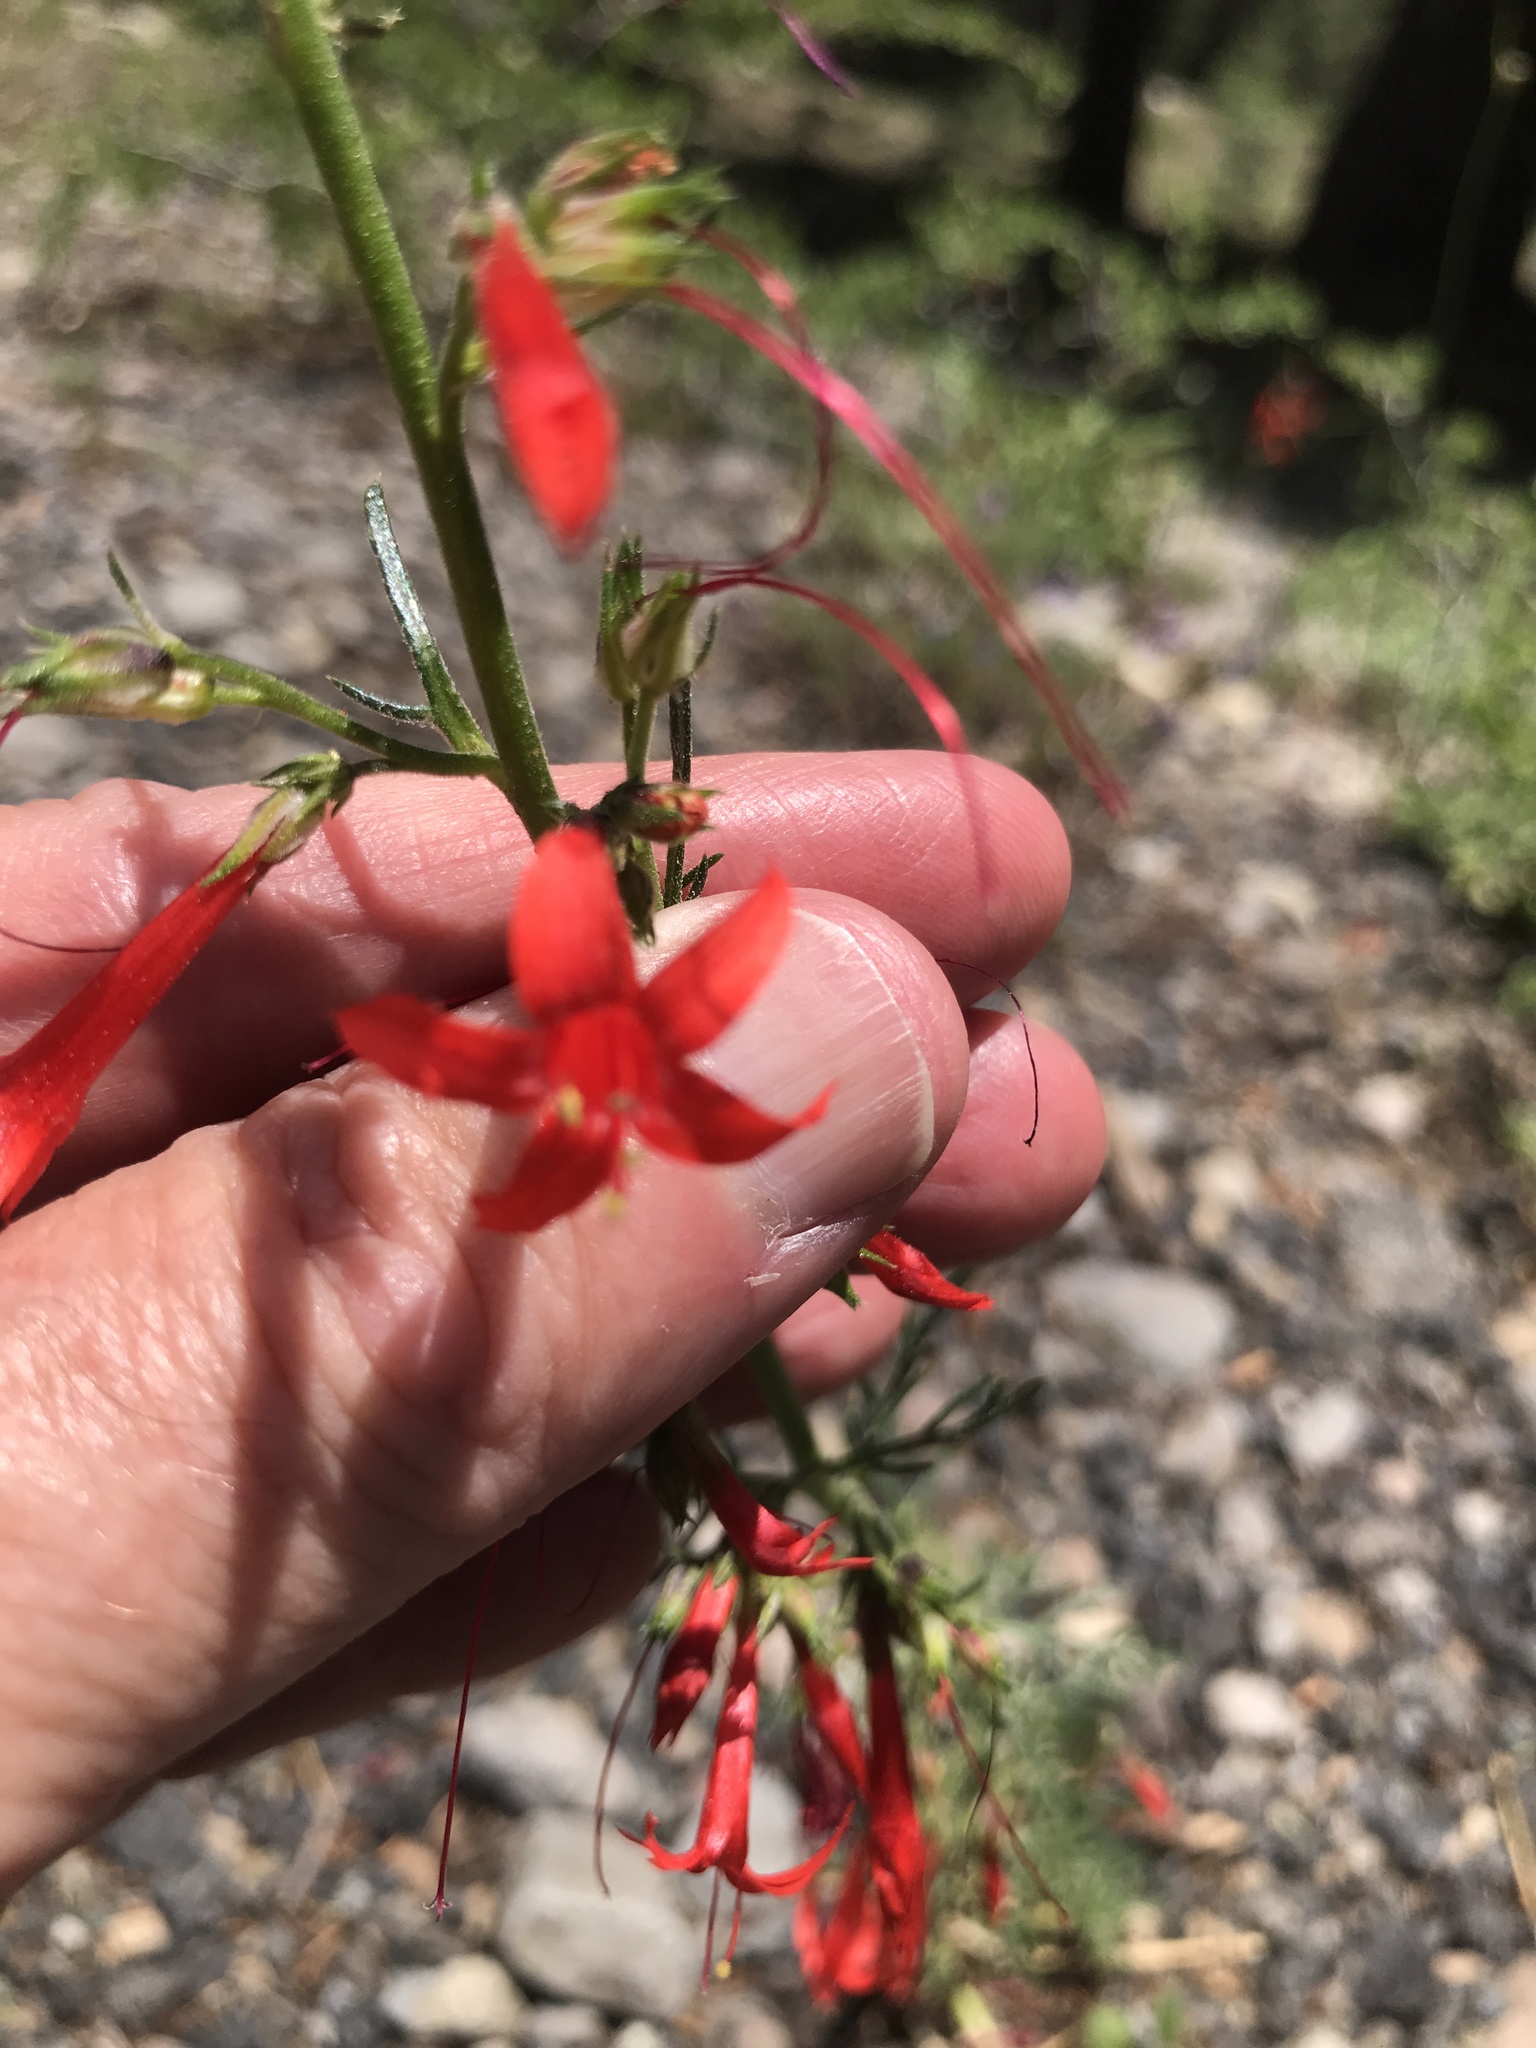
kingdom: Plantae
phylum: Tracheophyta
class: Magnoliopsida
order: Ericales
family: Polemoniaceae
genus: Ipomopsis
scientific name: Ipomopsis aggregata
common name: Scarlet gilia
